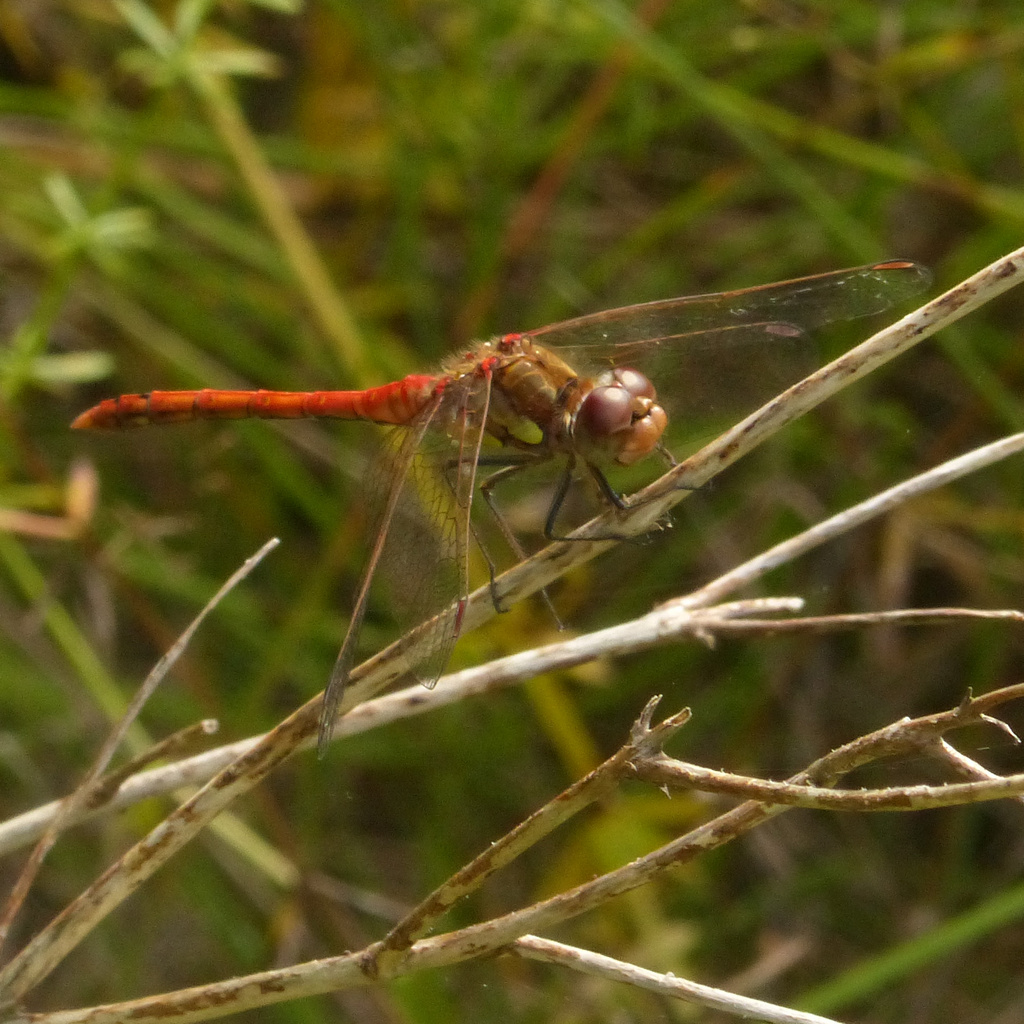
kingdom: Animalia
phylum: Arthropoda
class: Insecta
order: Odonata
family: Libellulidae
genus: Sympetrum
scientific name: Sympetrum striolatum
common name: Common darter
